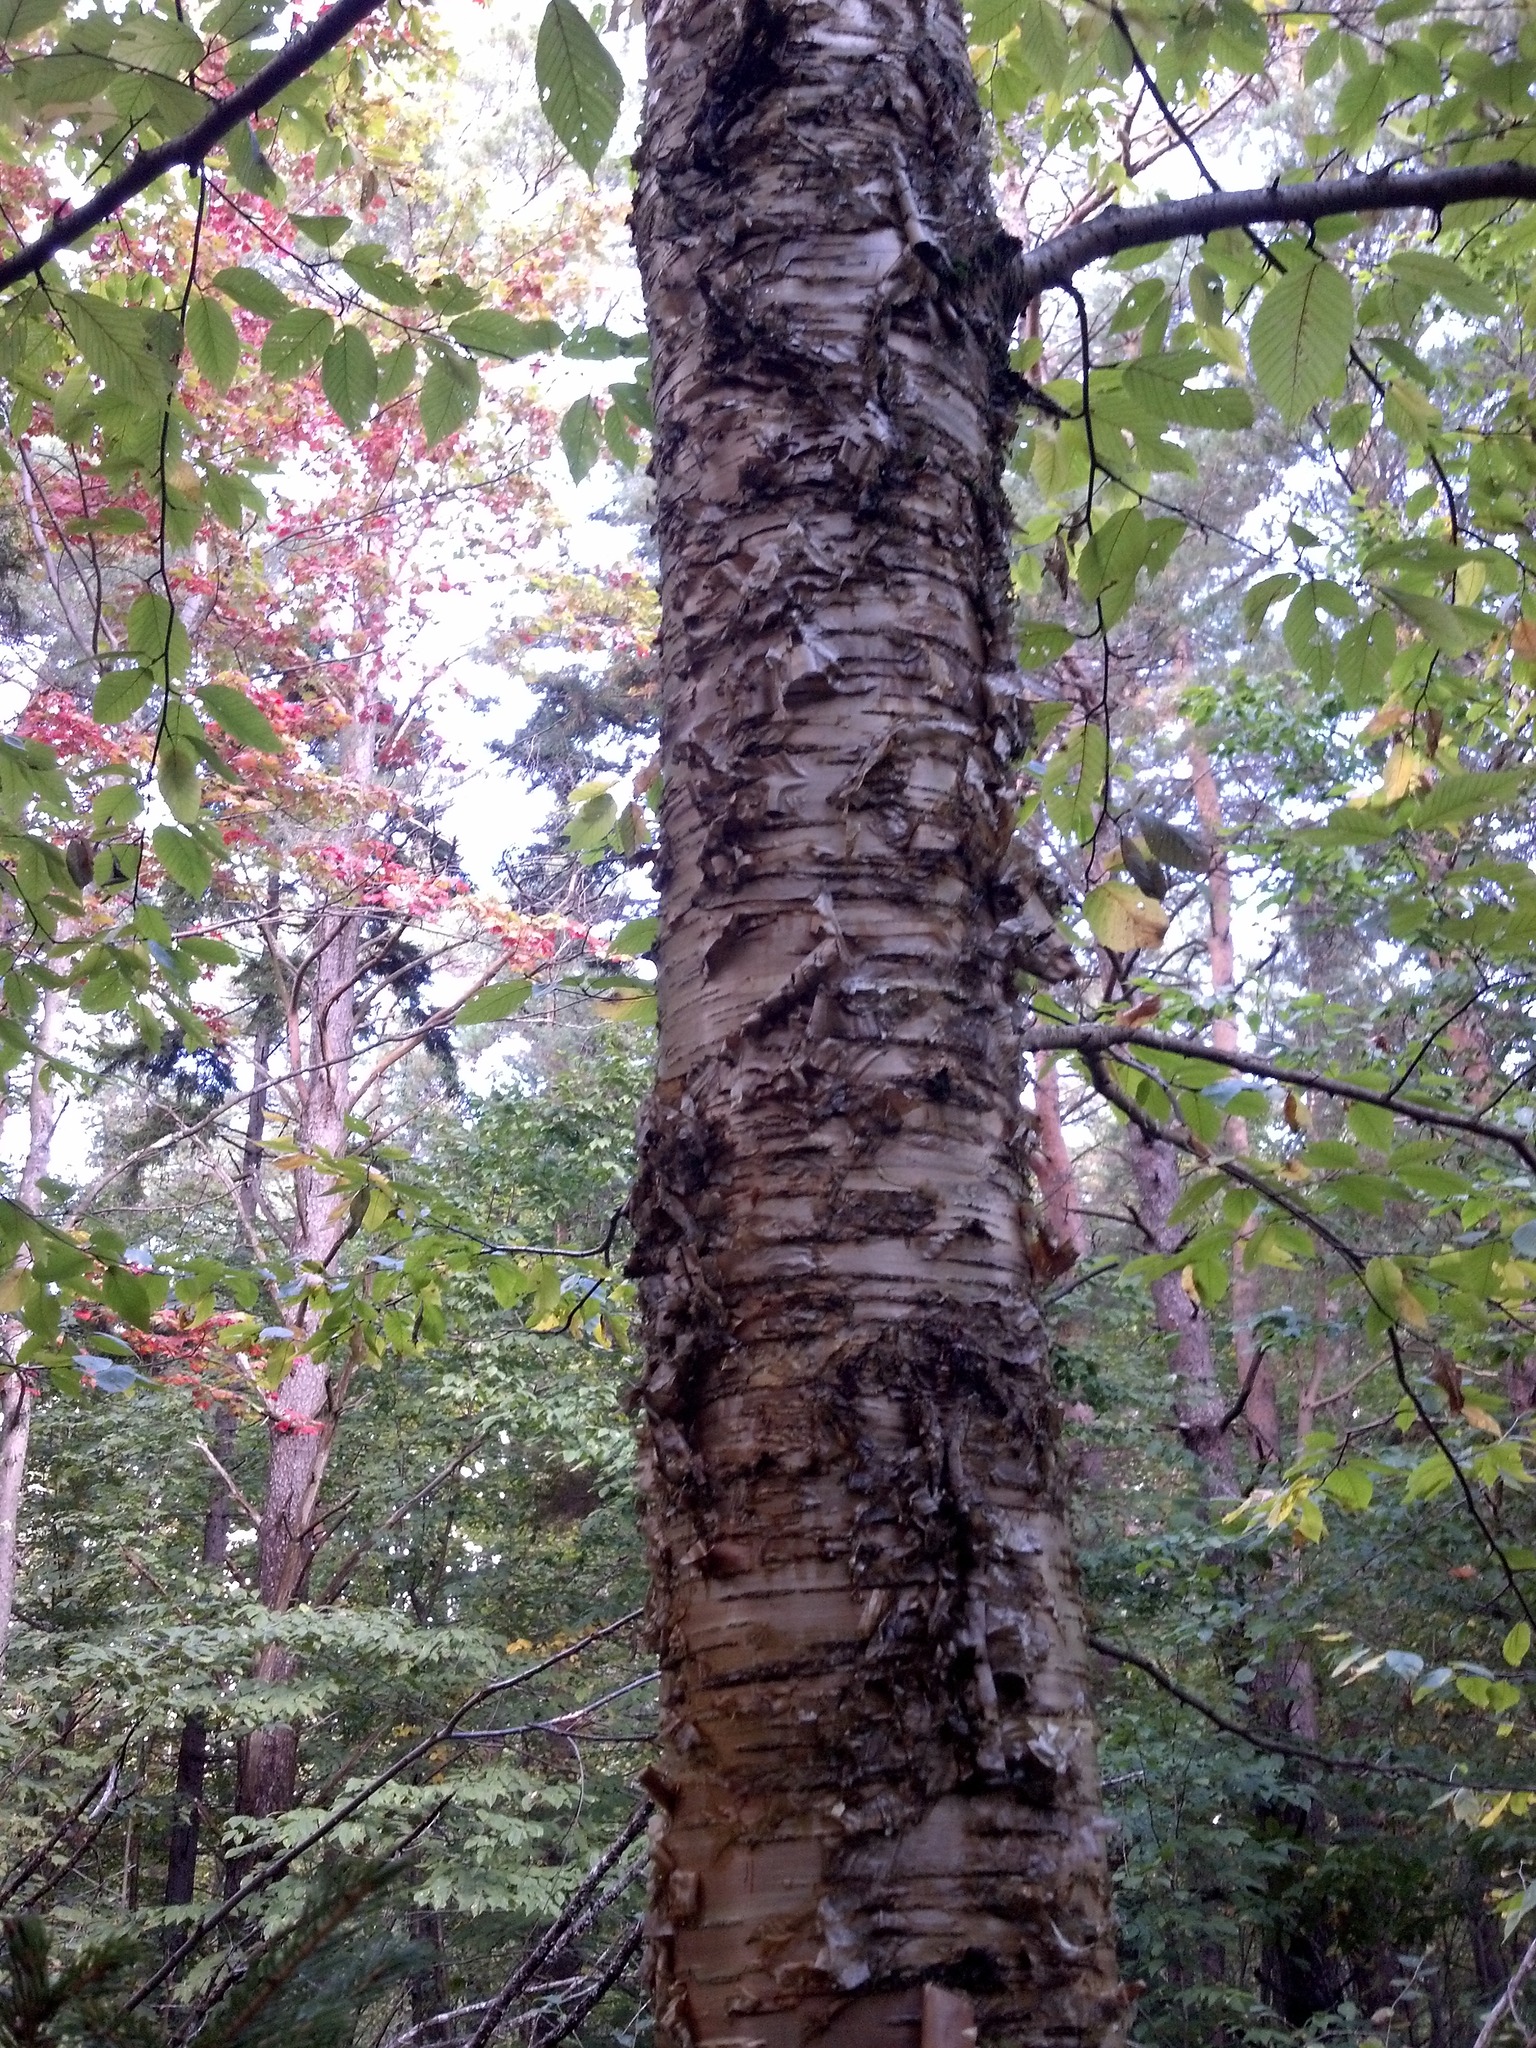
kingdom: Plantae
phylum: Tracheophyta
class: Magnoliopsida
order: Fagales
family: Betulaceae
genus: Betula
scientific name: Betula alleghaniensis
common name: Yellow birch
